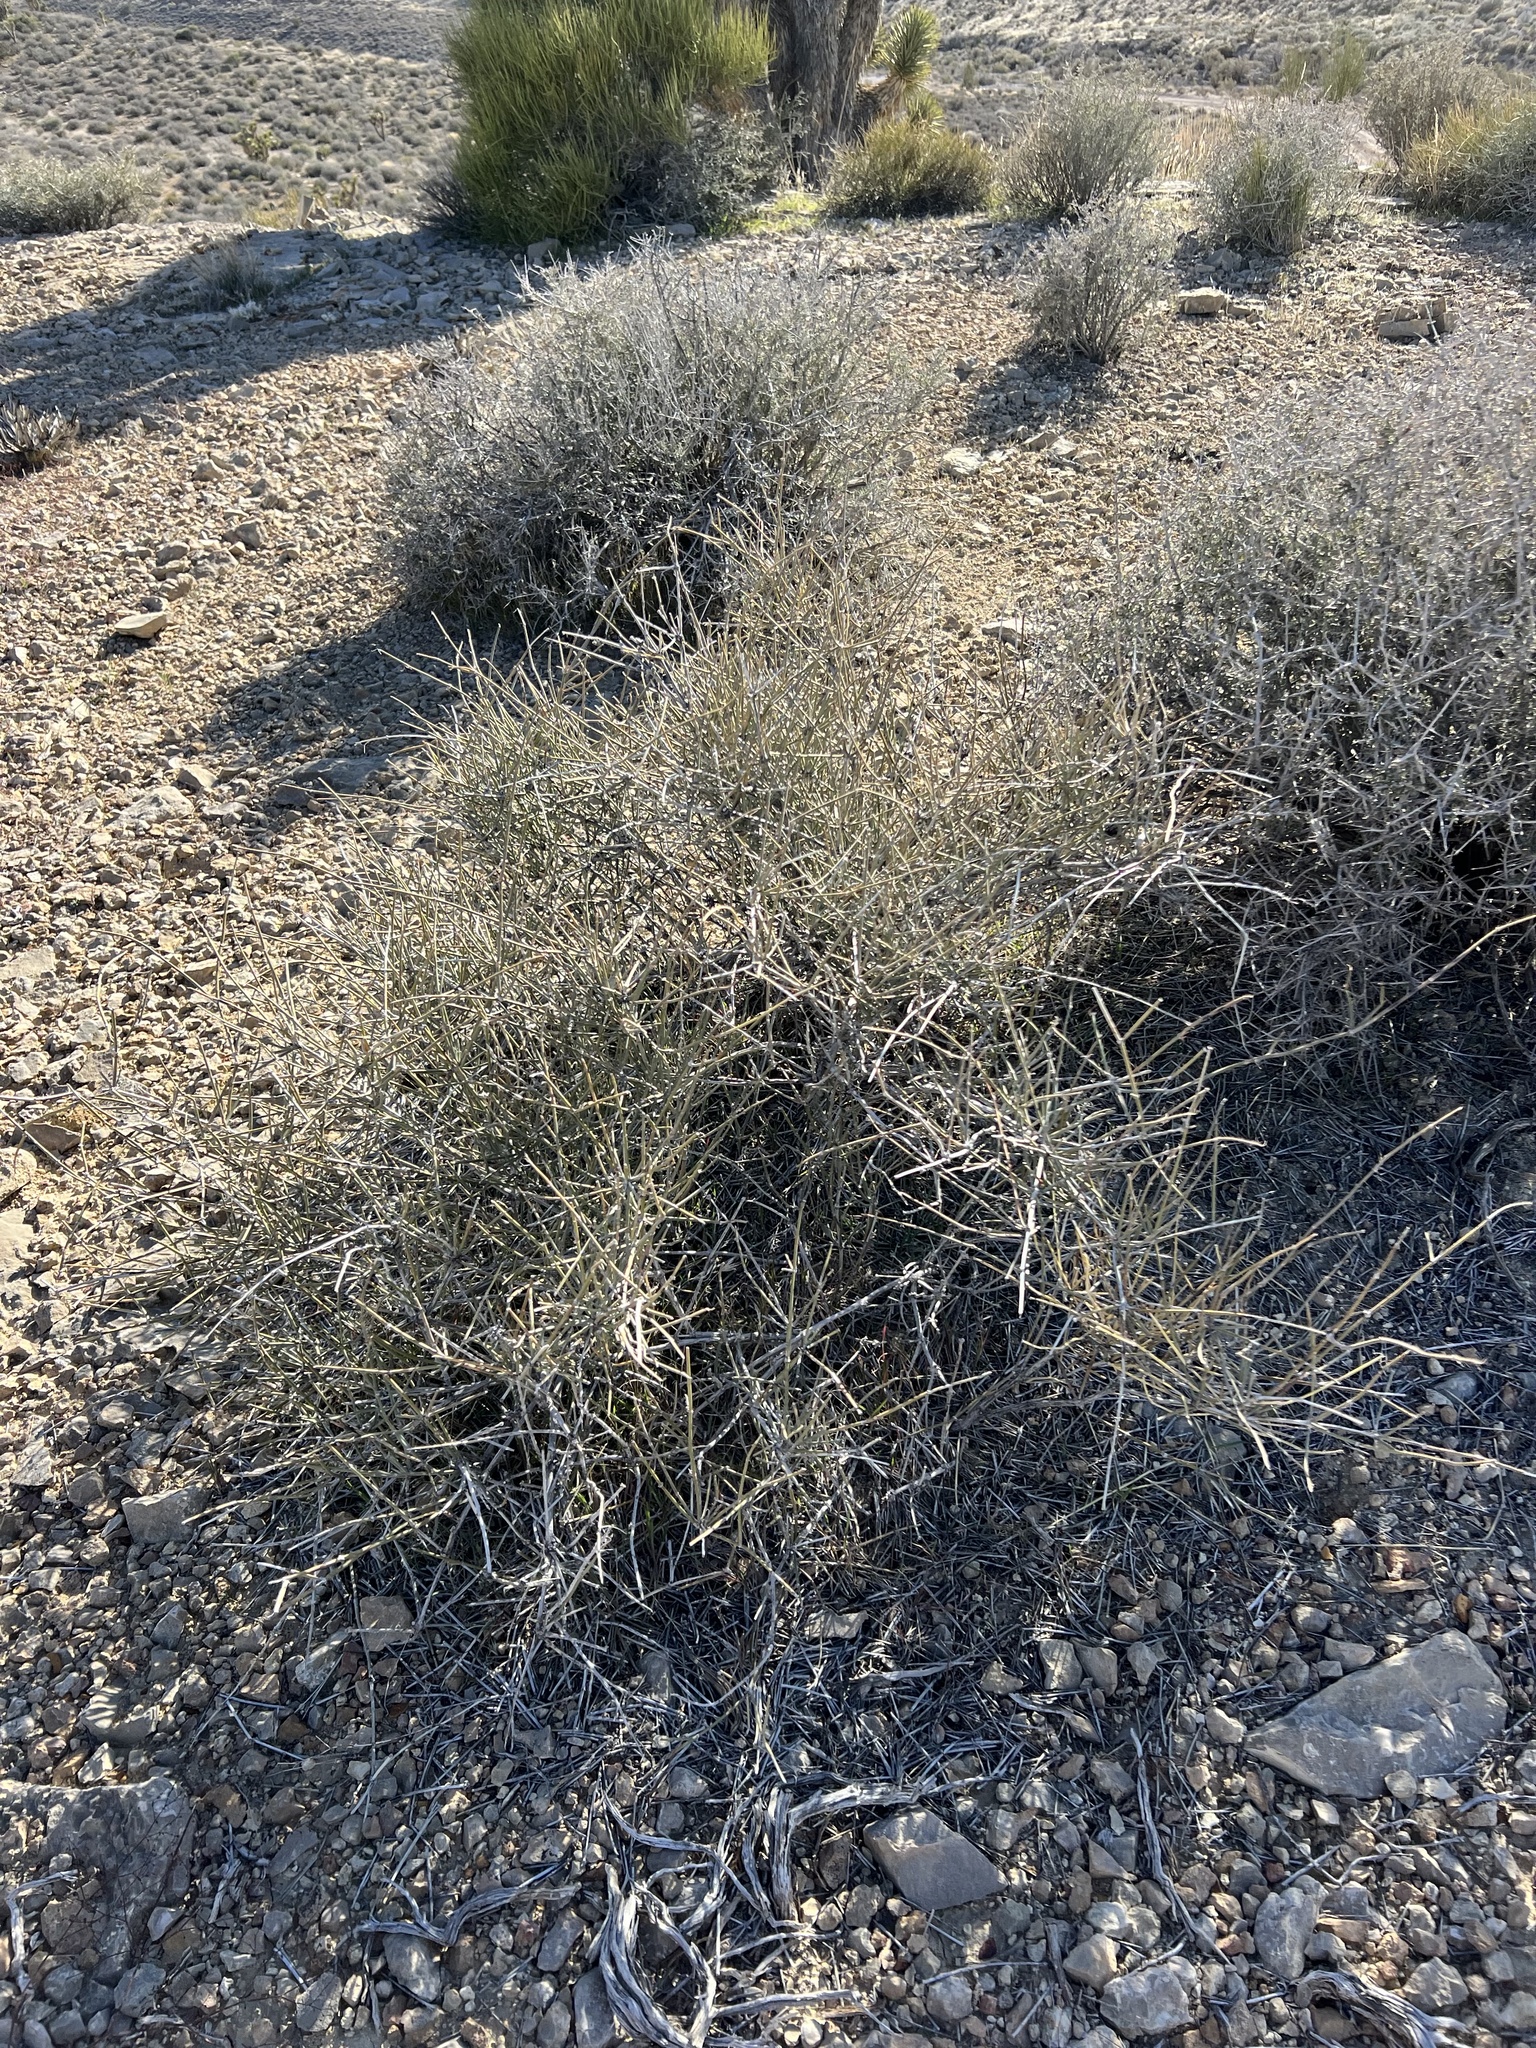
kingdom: Plantae
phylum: Tracheophyta
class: Gnetopsida
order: Ephedrales
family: Ephedraceae
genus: Ephedra
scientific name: Ephedra nevadensis
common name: Gray ephedra
